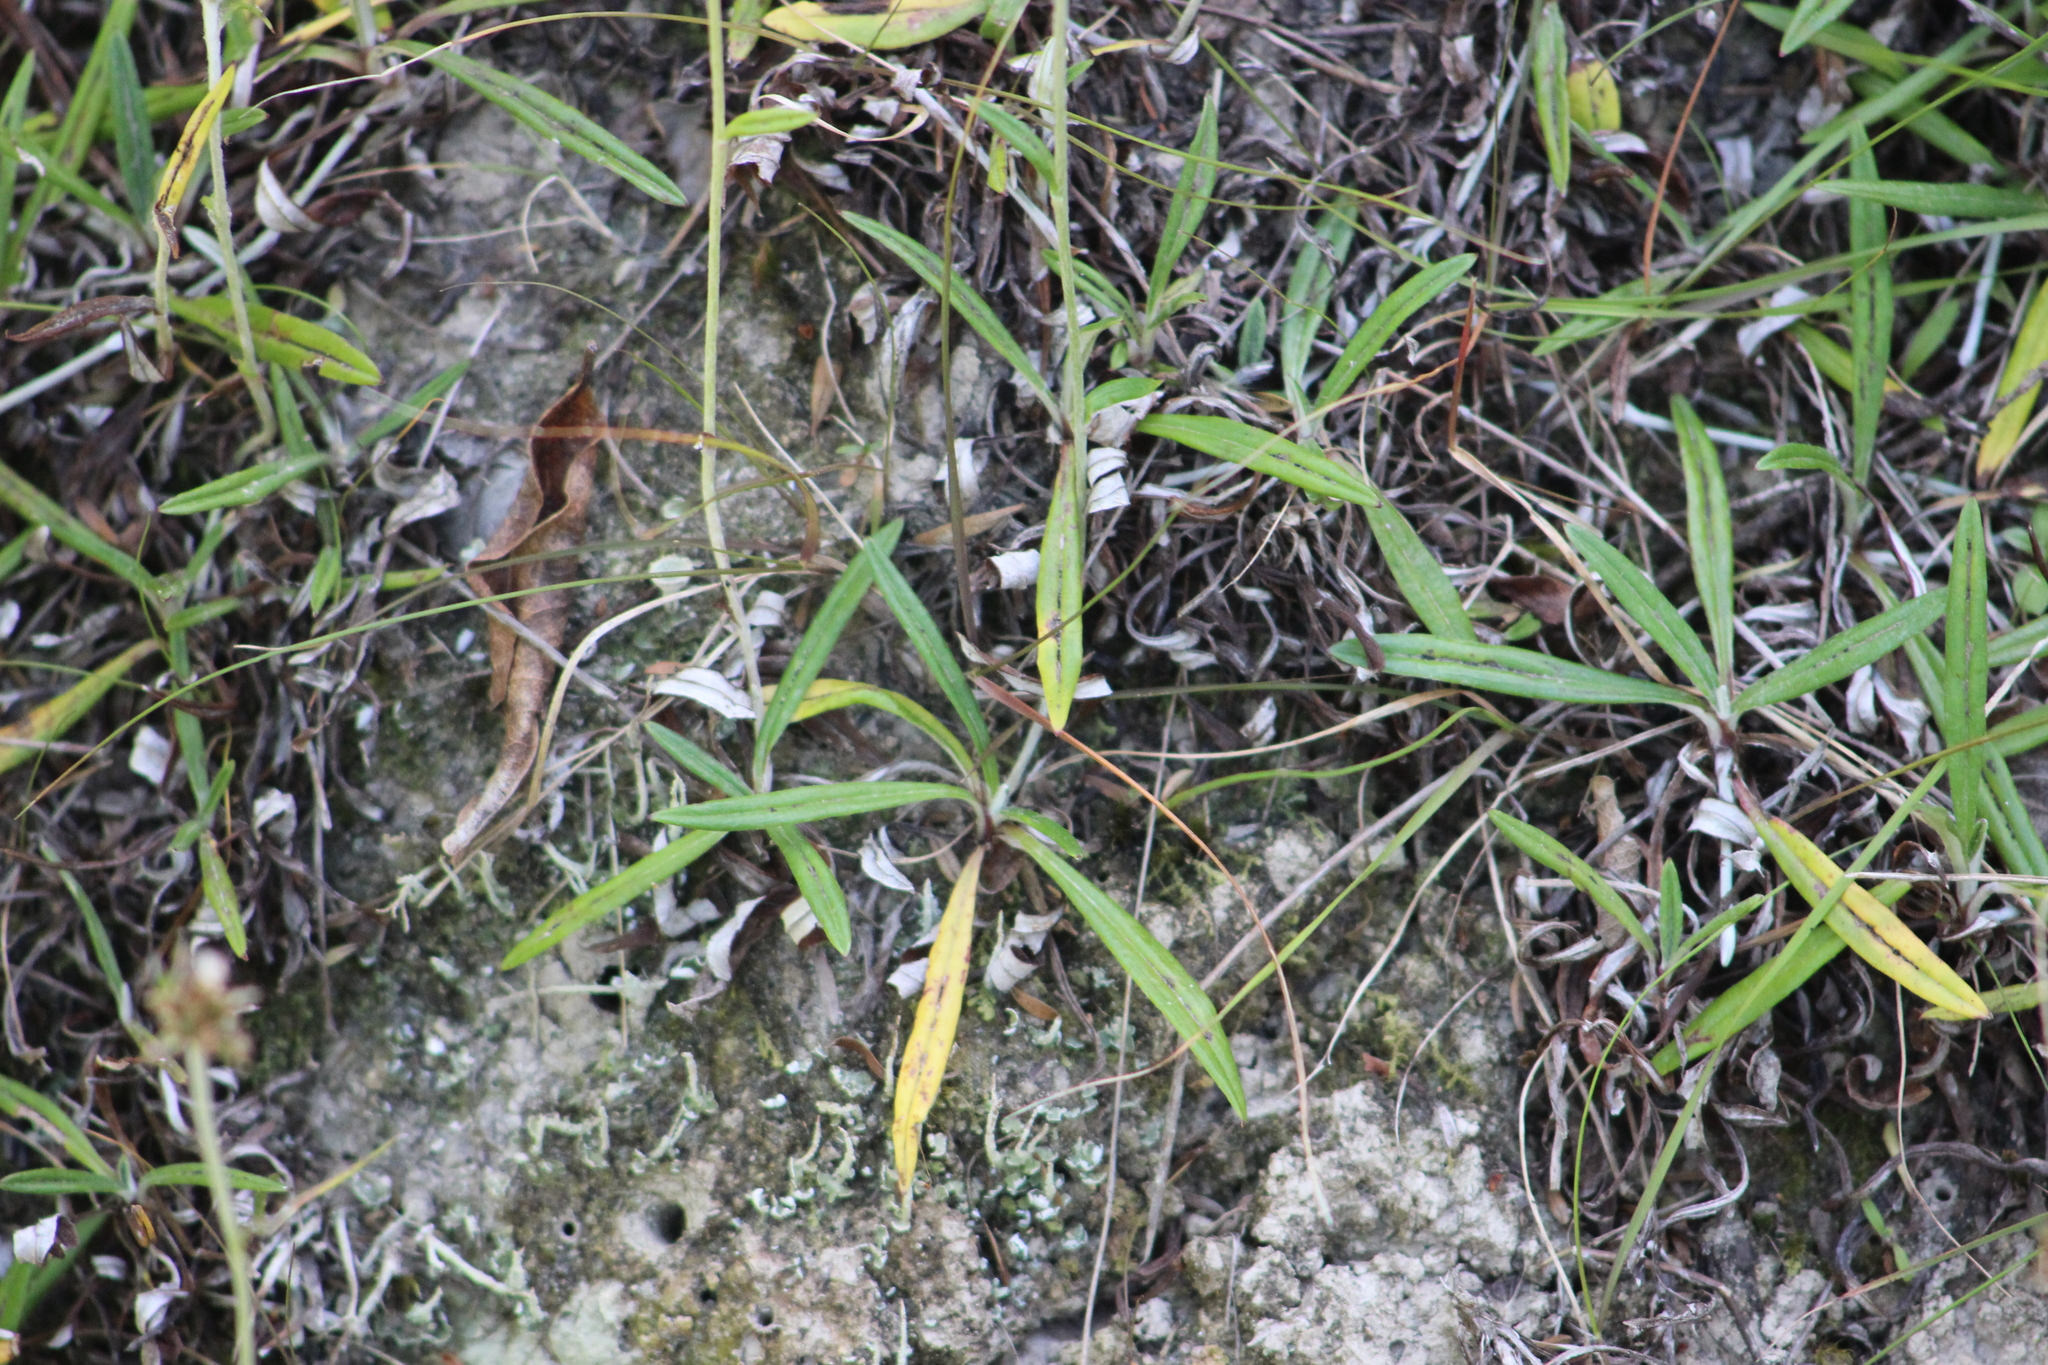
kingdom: Plantae
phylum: Tracheophyta
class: Magnoliopsida
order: Asterales
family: Asteraceae
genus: Euchiton
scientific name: Euchiton japonicus
